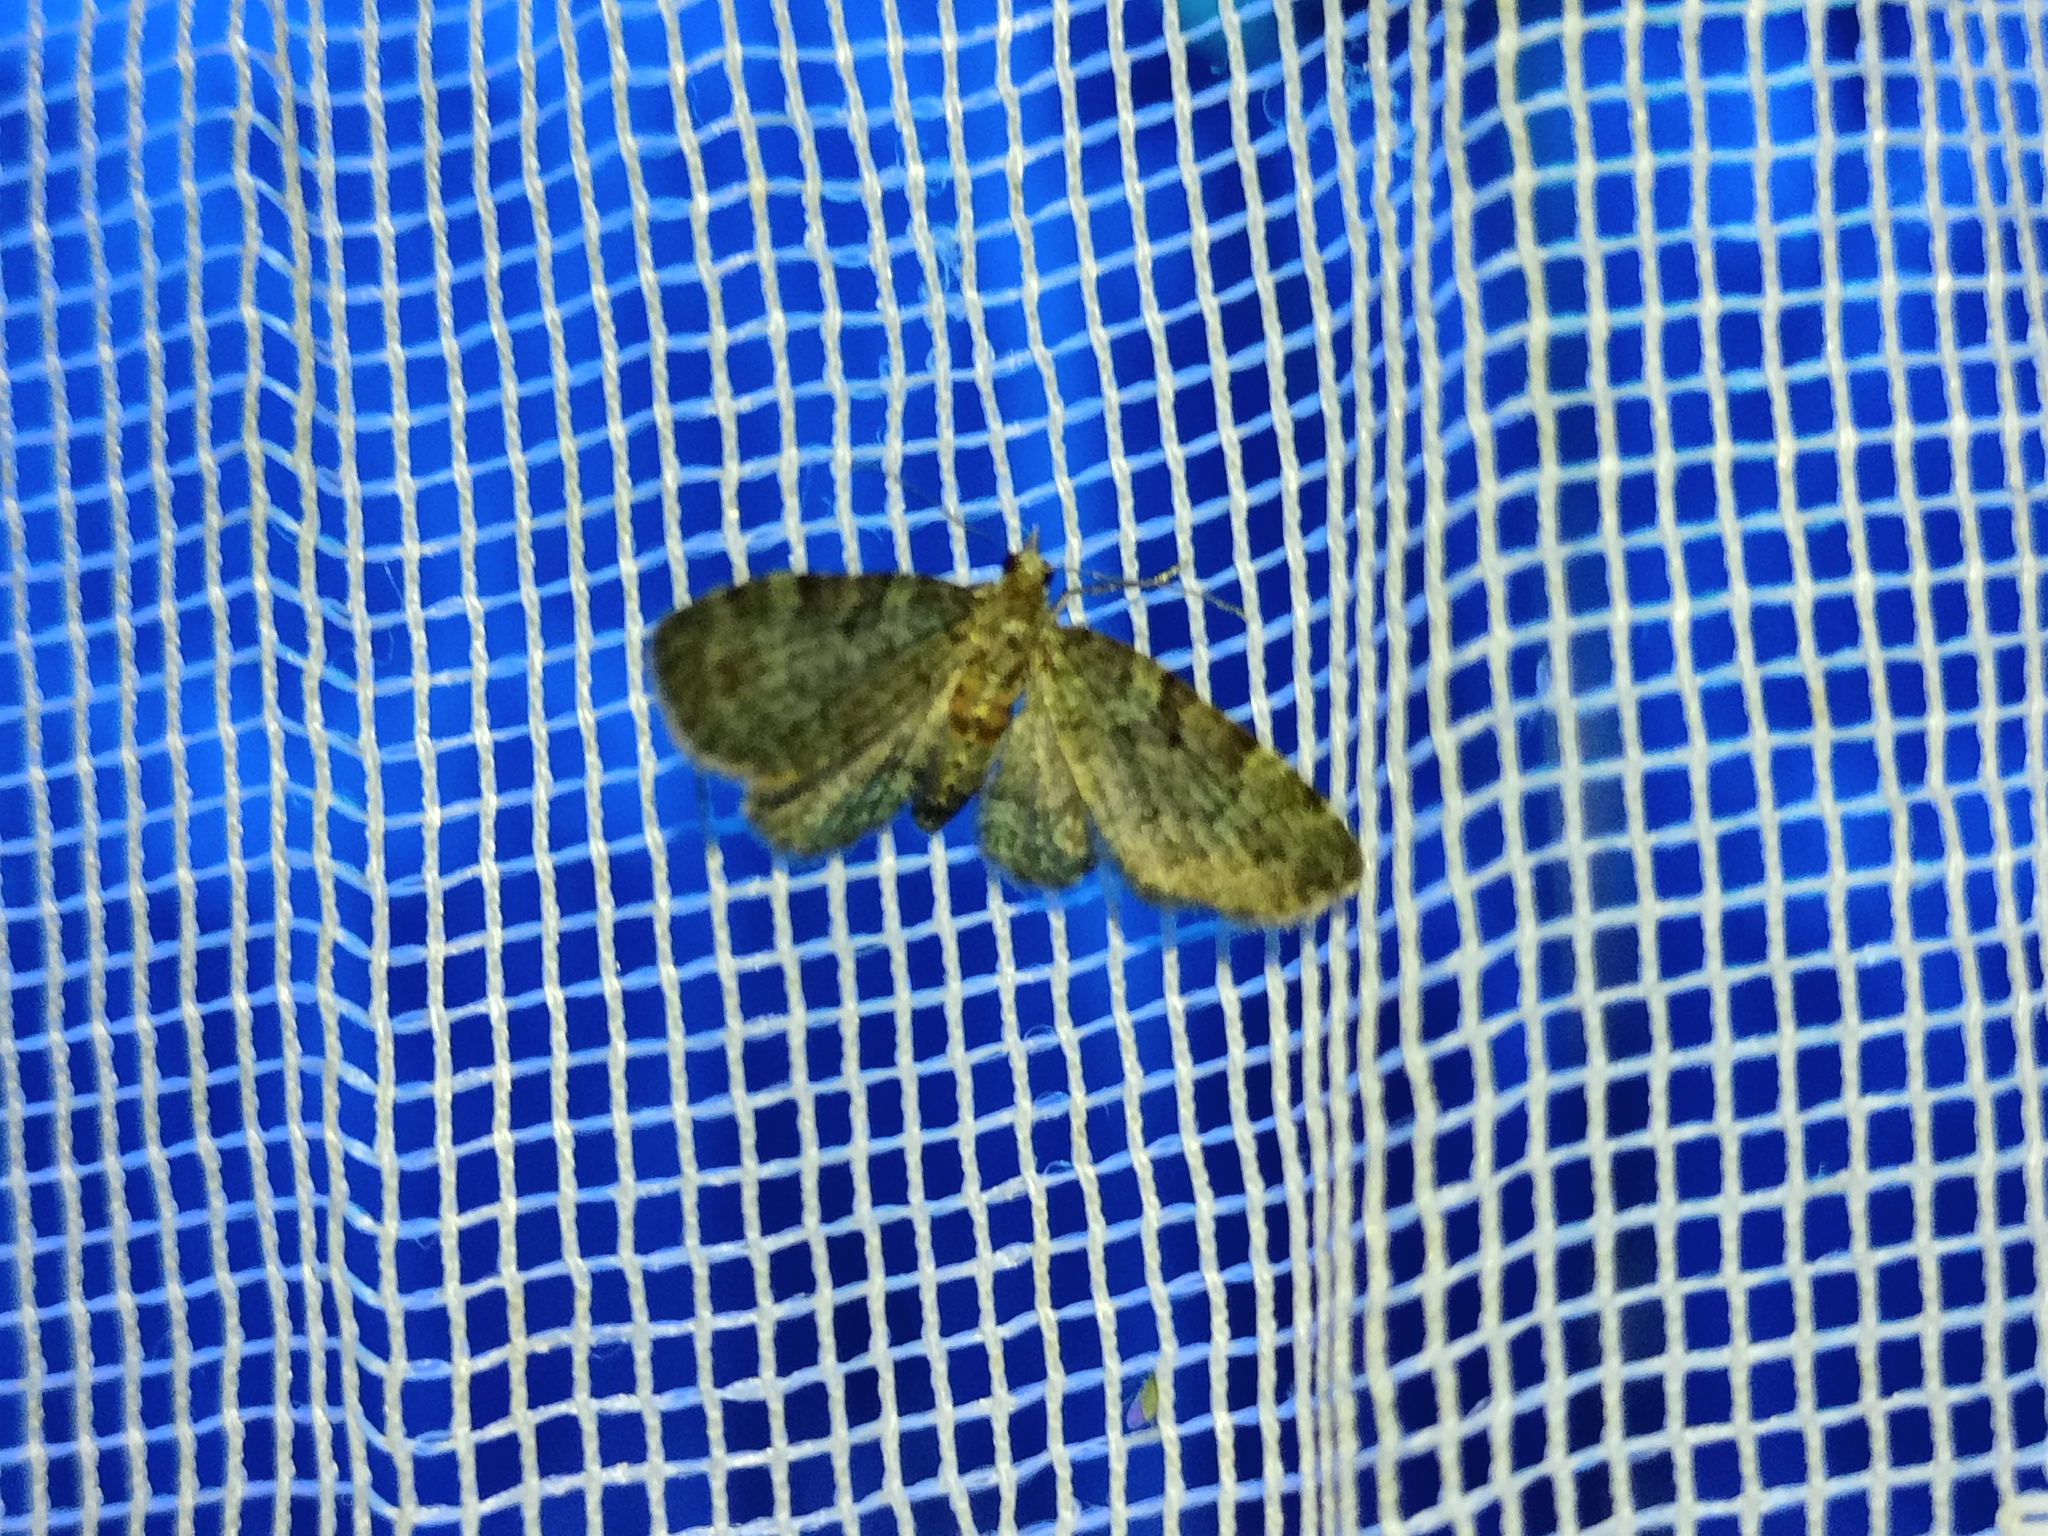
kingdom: Animalia
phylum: Arthropoda
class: Insecta
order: Lepidoptera
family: Geometridae
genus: Pasiphila
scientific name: Pasiphila rectangulata
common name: Green pug
